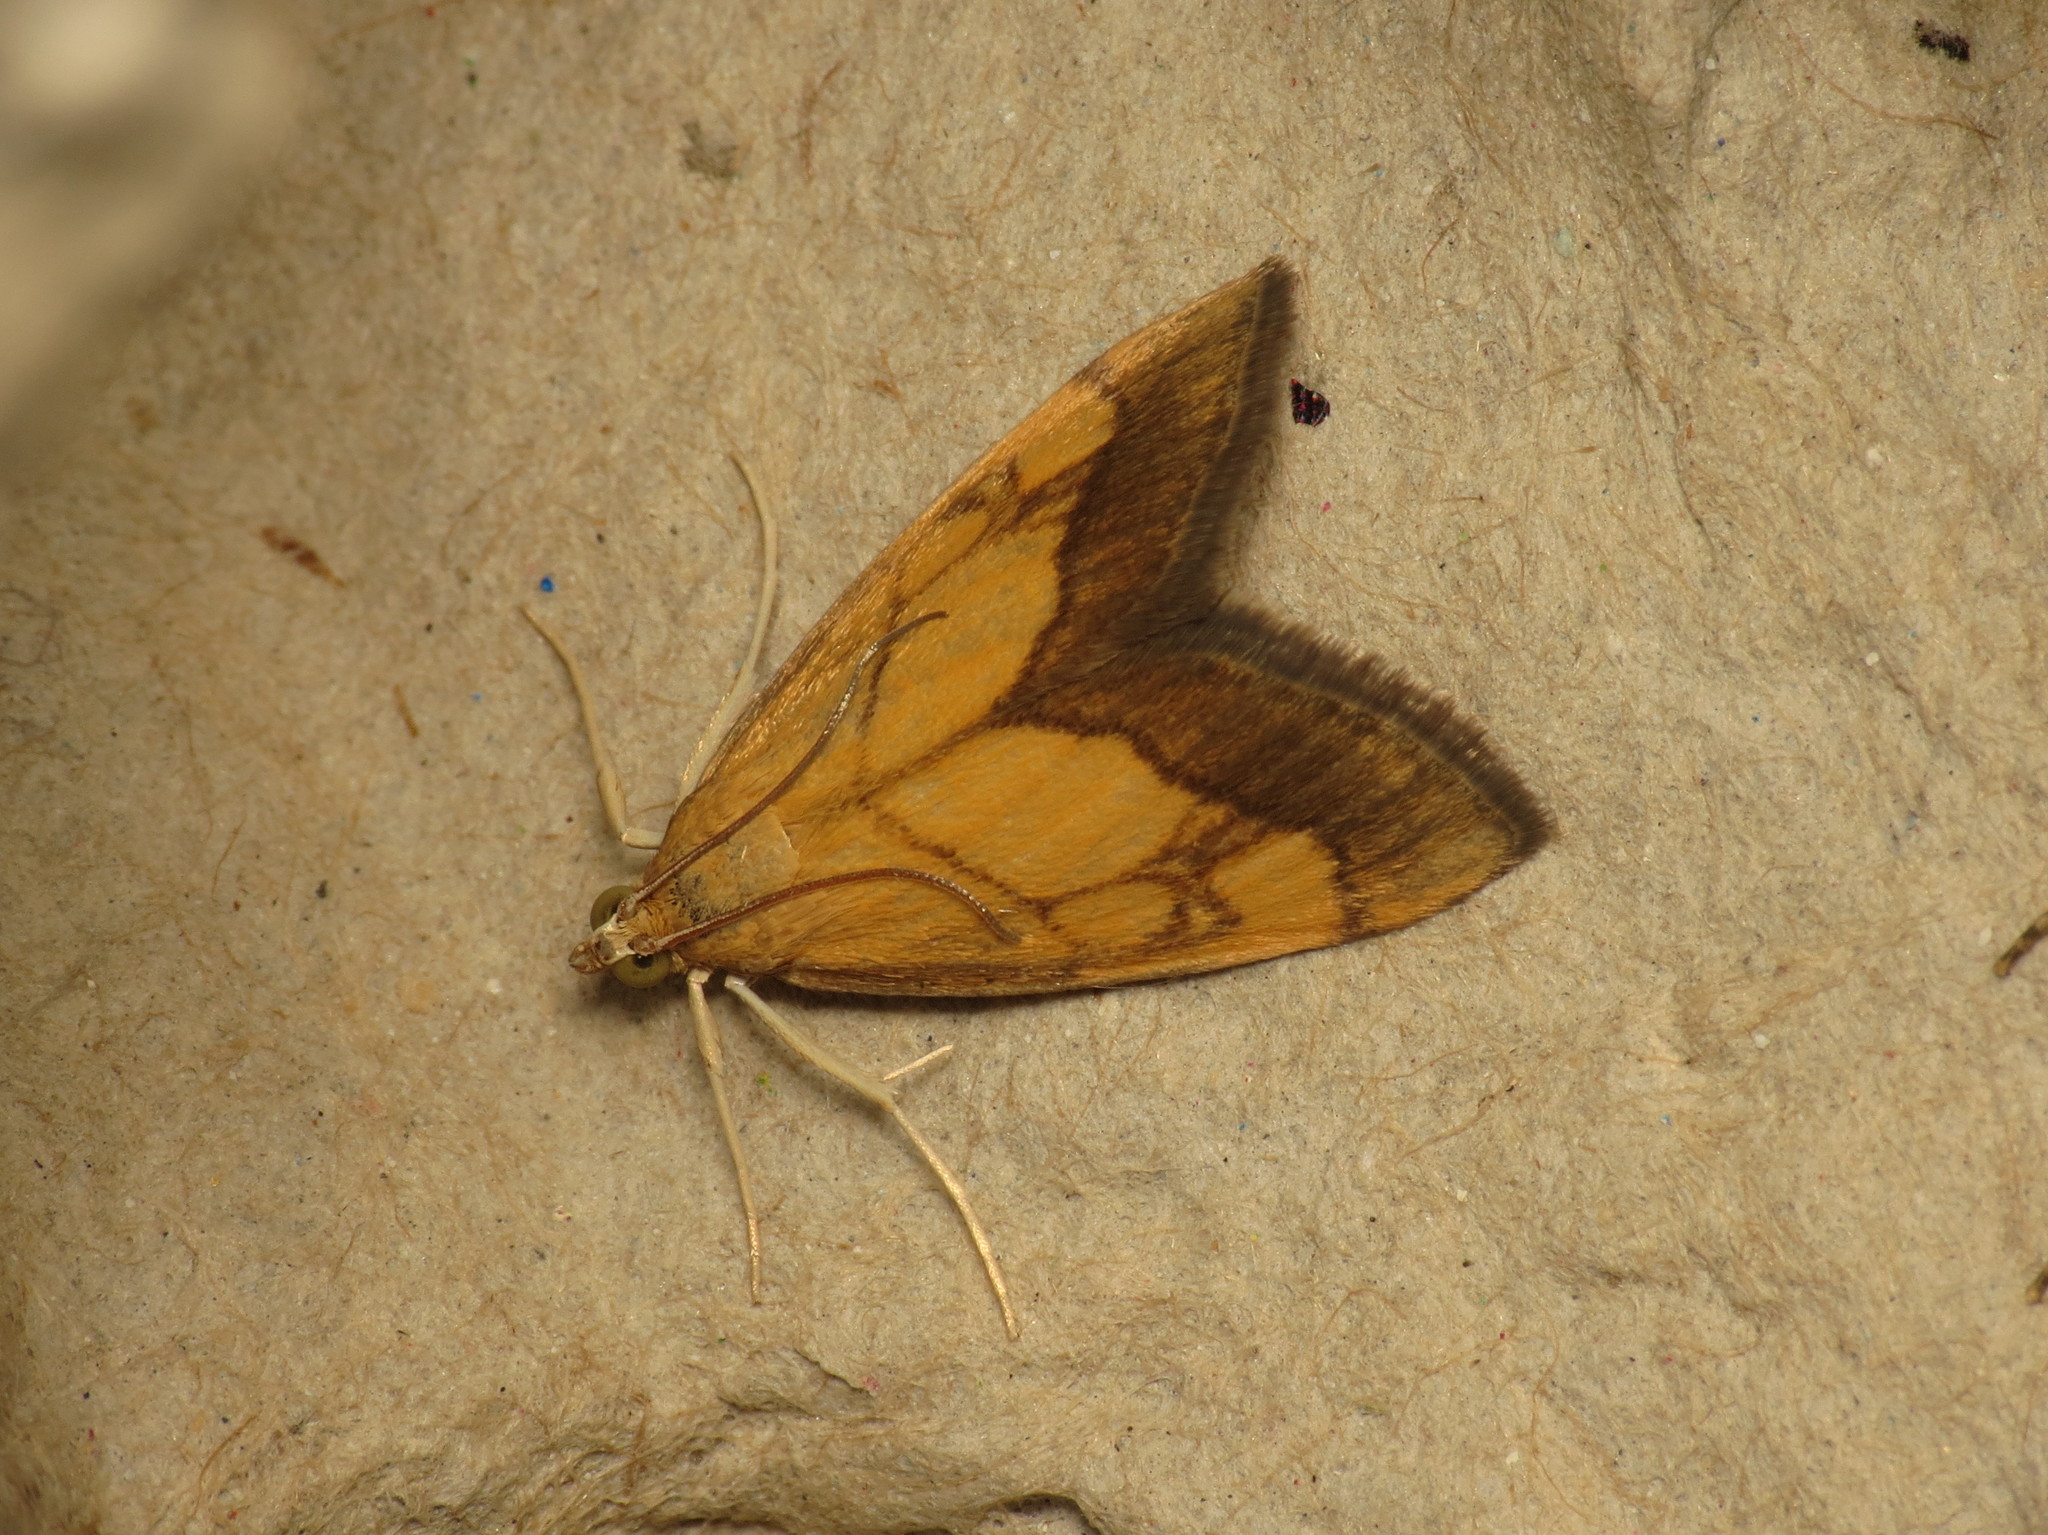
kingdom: Animalia
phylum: Arthropoda
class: Insecta
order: Lepidoptera
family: Crambidae
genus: Evergestis
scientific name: Evergestis limbata
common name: Dark bordered pearl
